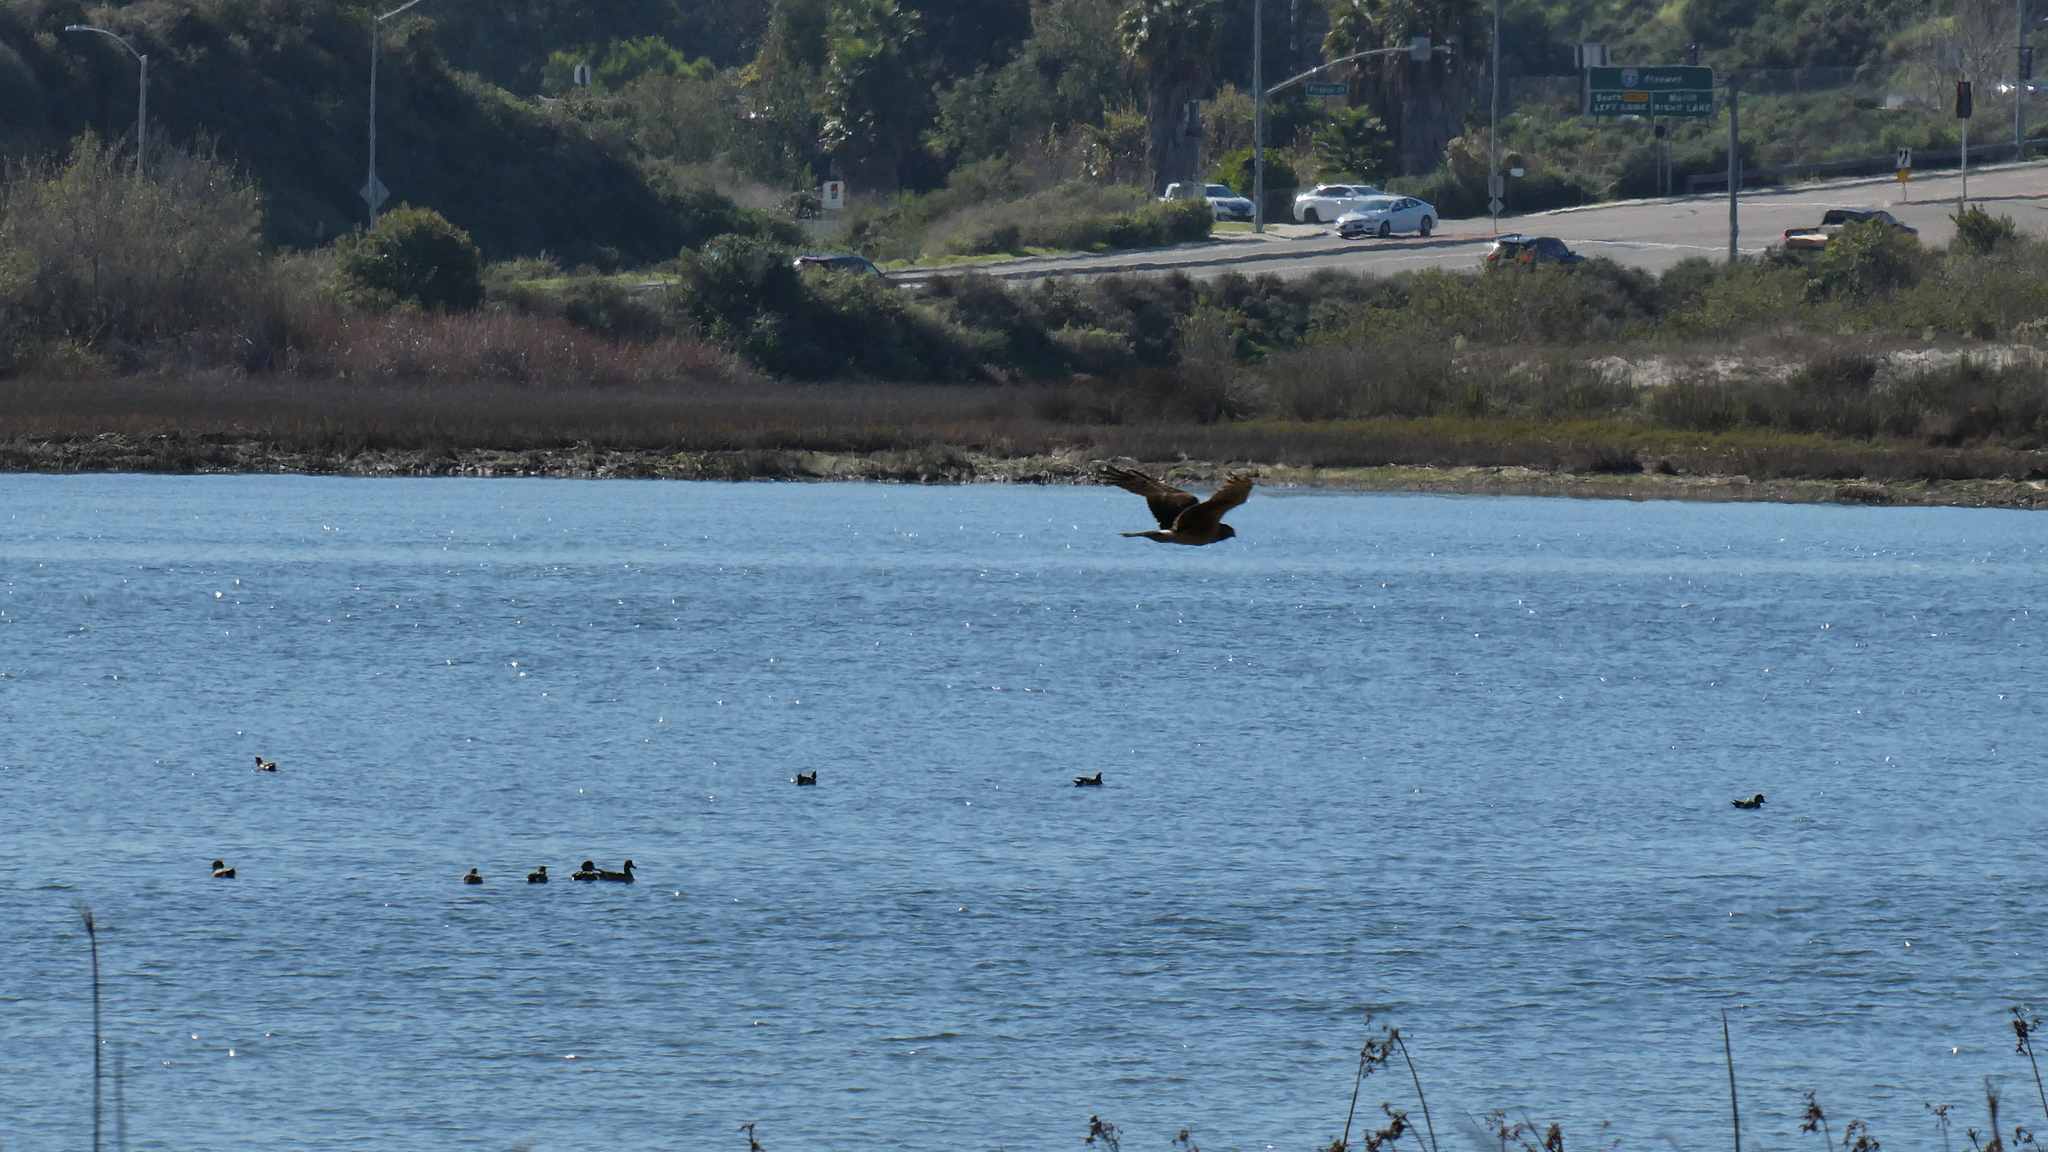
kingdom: Animalia
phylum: Chordata
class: Aves
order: Accipitriformes
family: Accipitridae
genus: Circus
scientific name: Circus cyaneus
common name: Hen harrier
